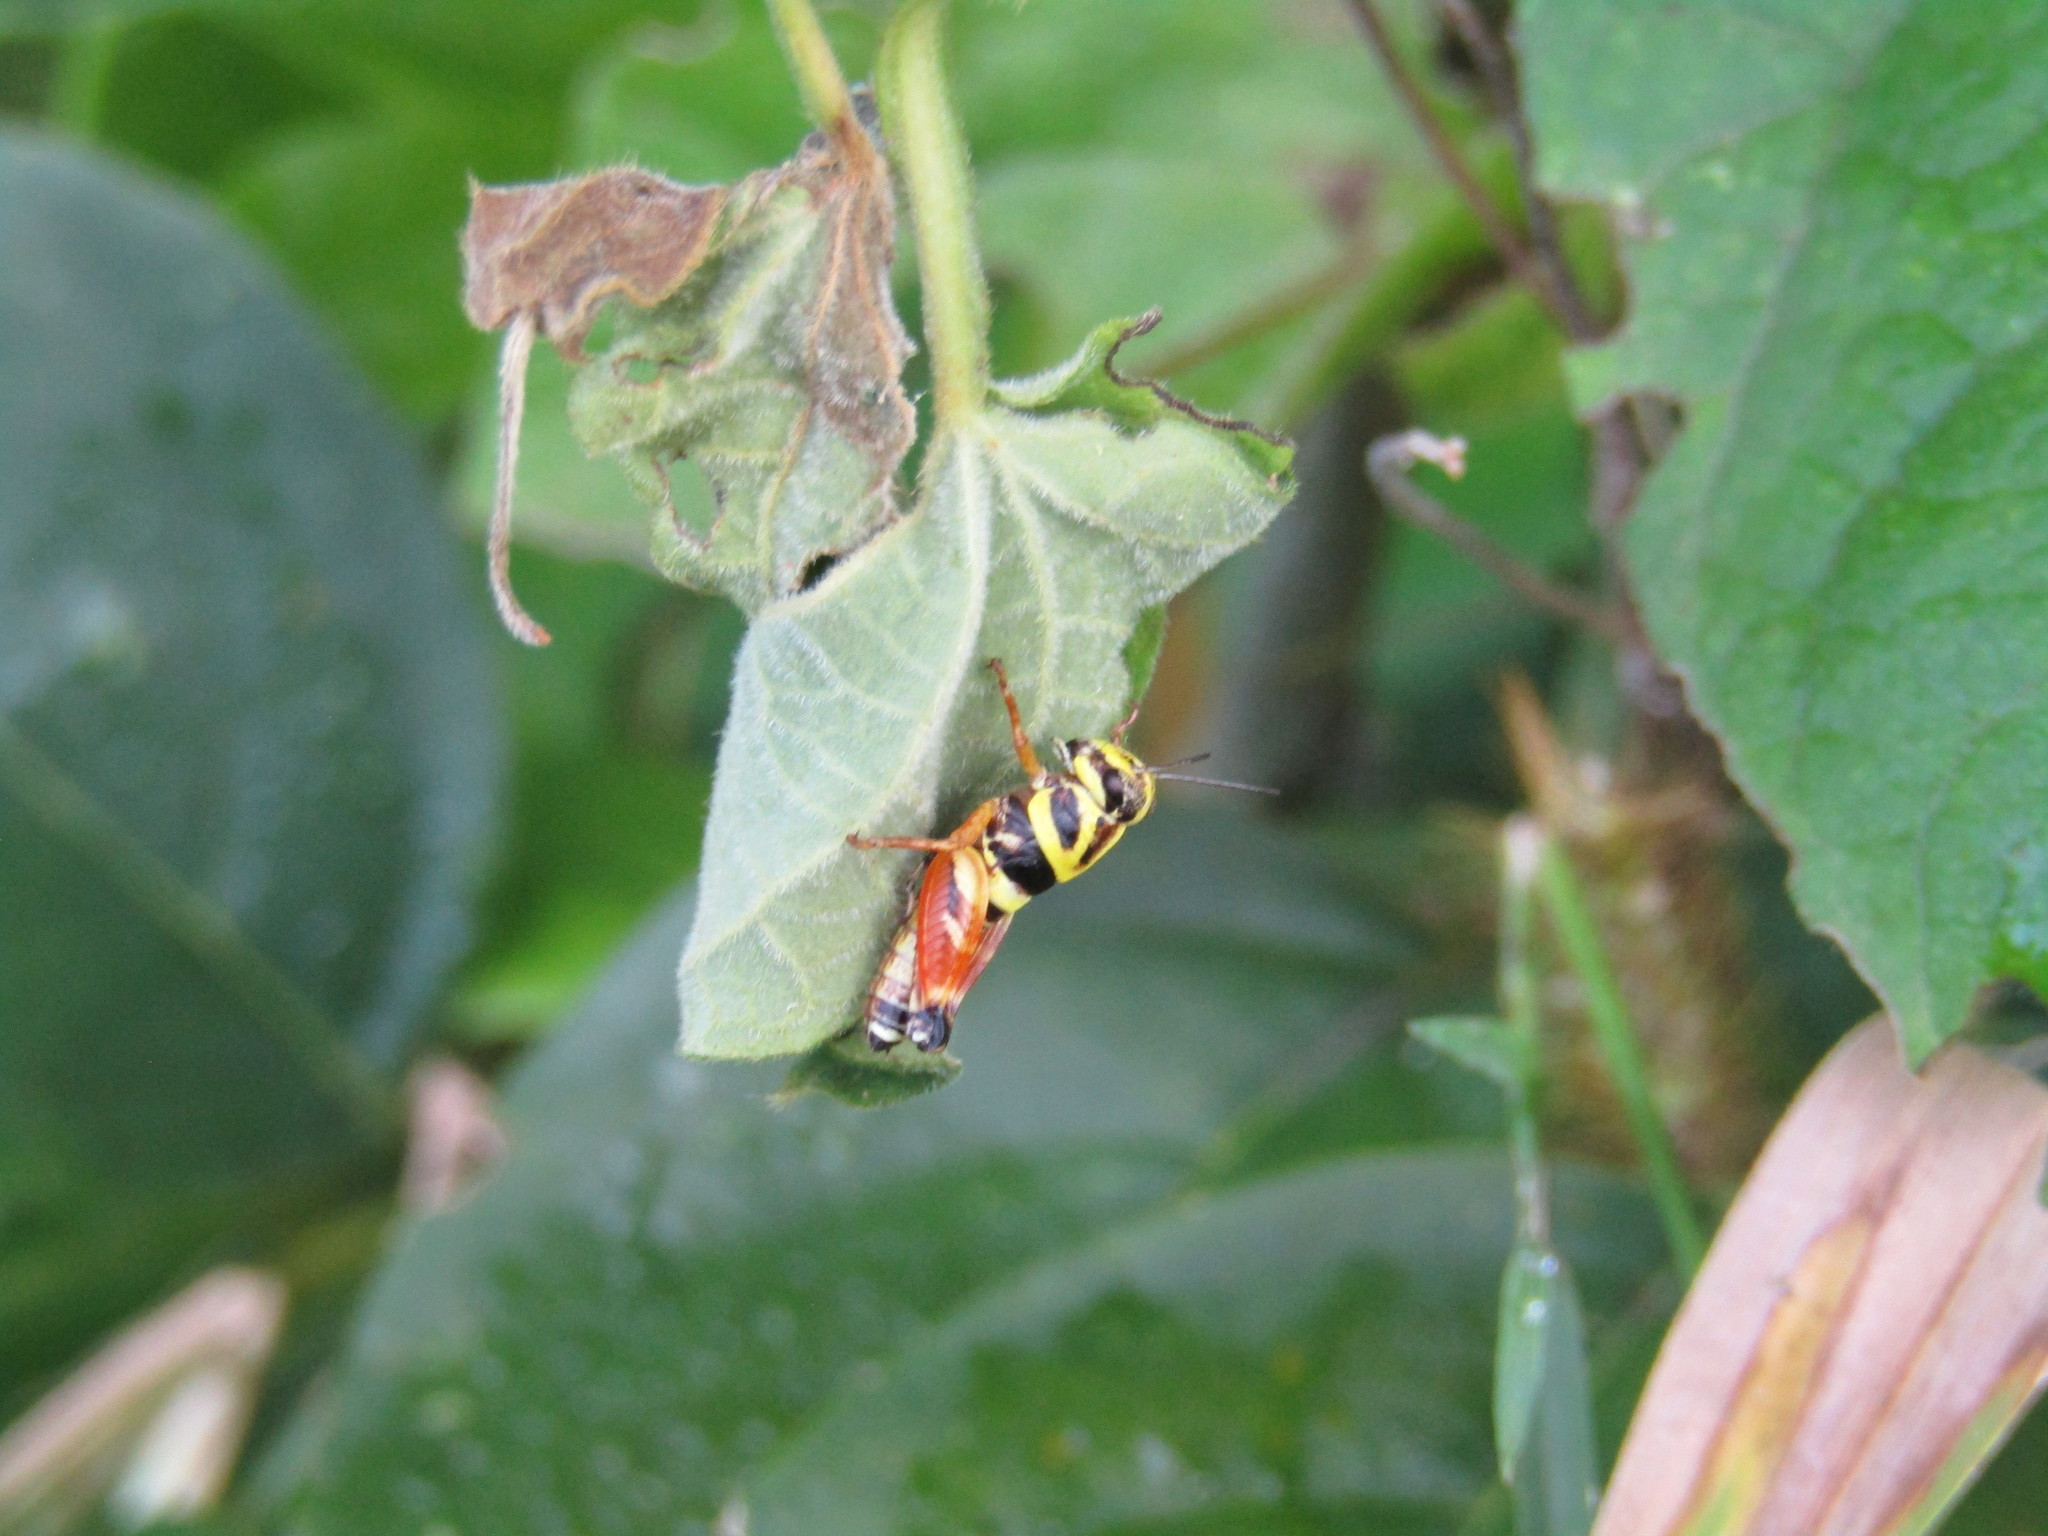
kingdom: Animalia
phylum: Arthropoda
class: Insecta
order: Orthoptera
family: Acrididae
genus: Aidemona
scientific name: Aidemona azteca
